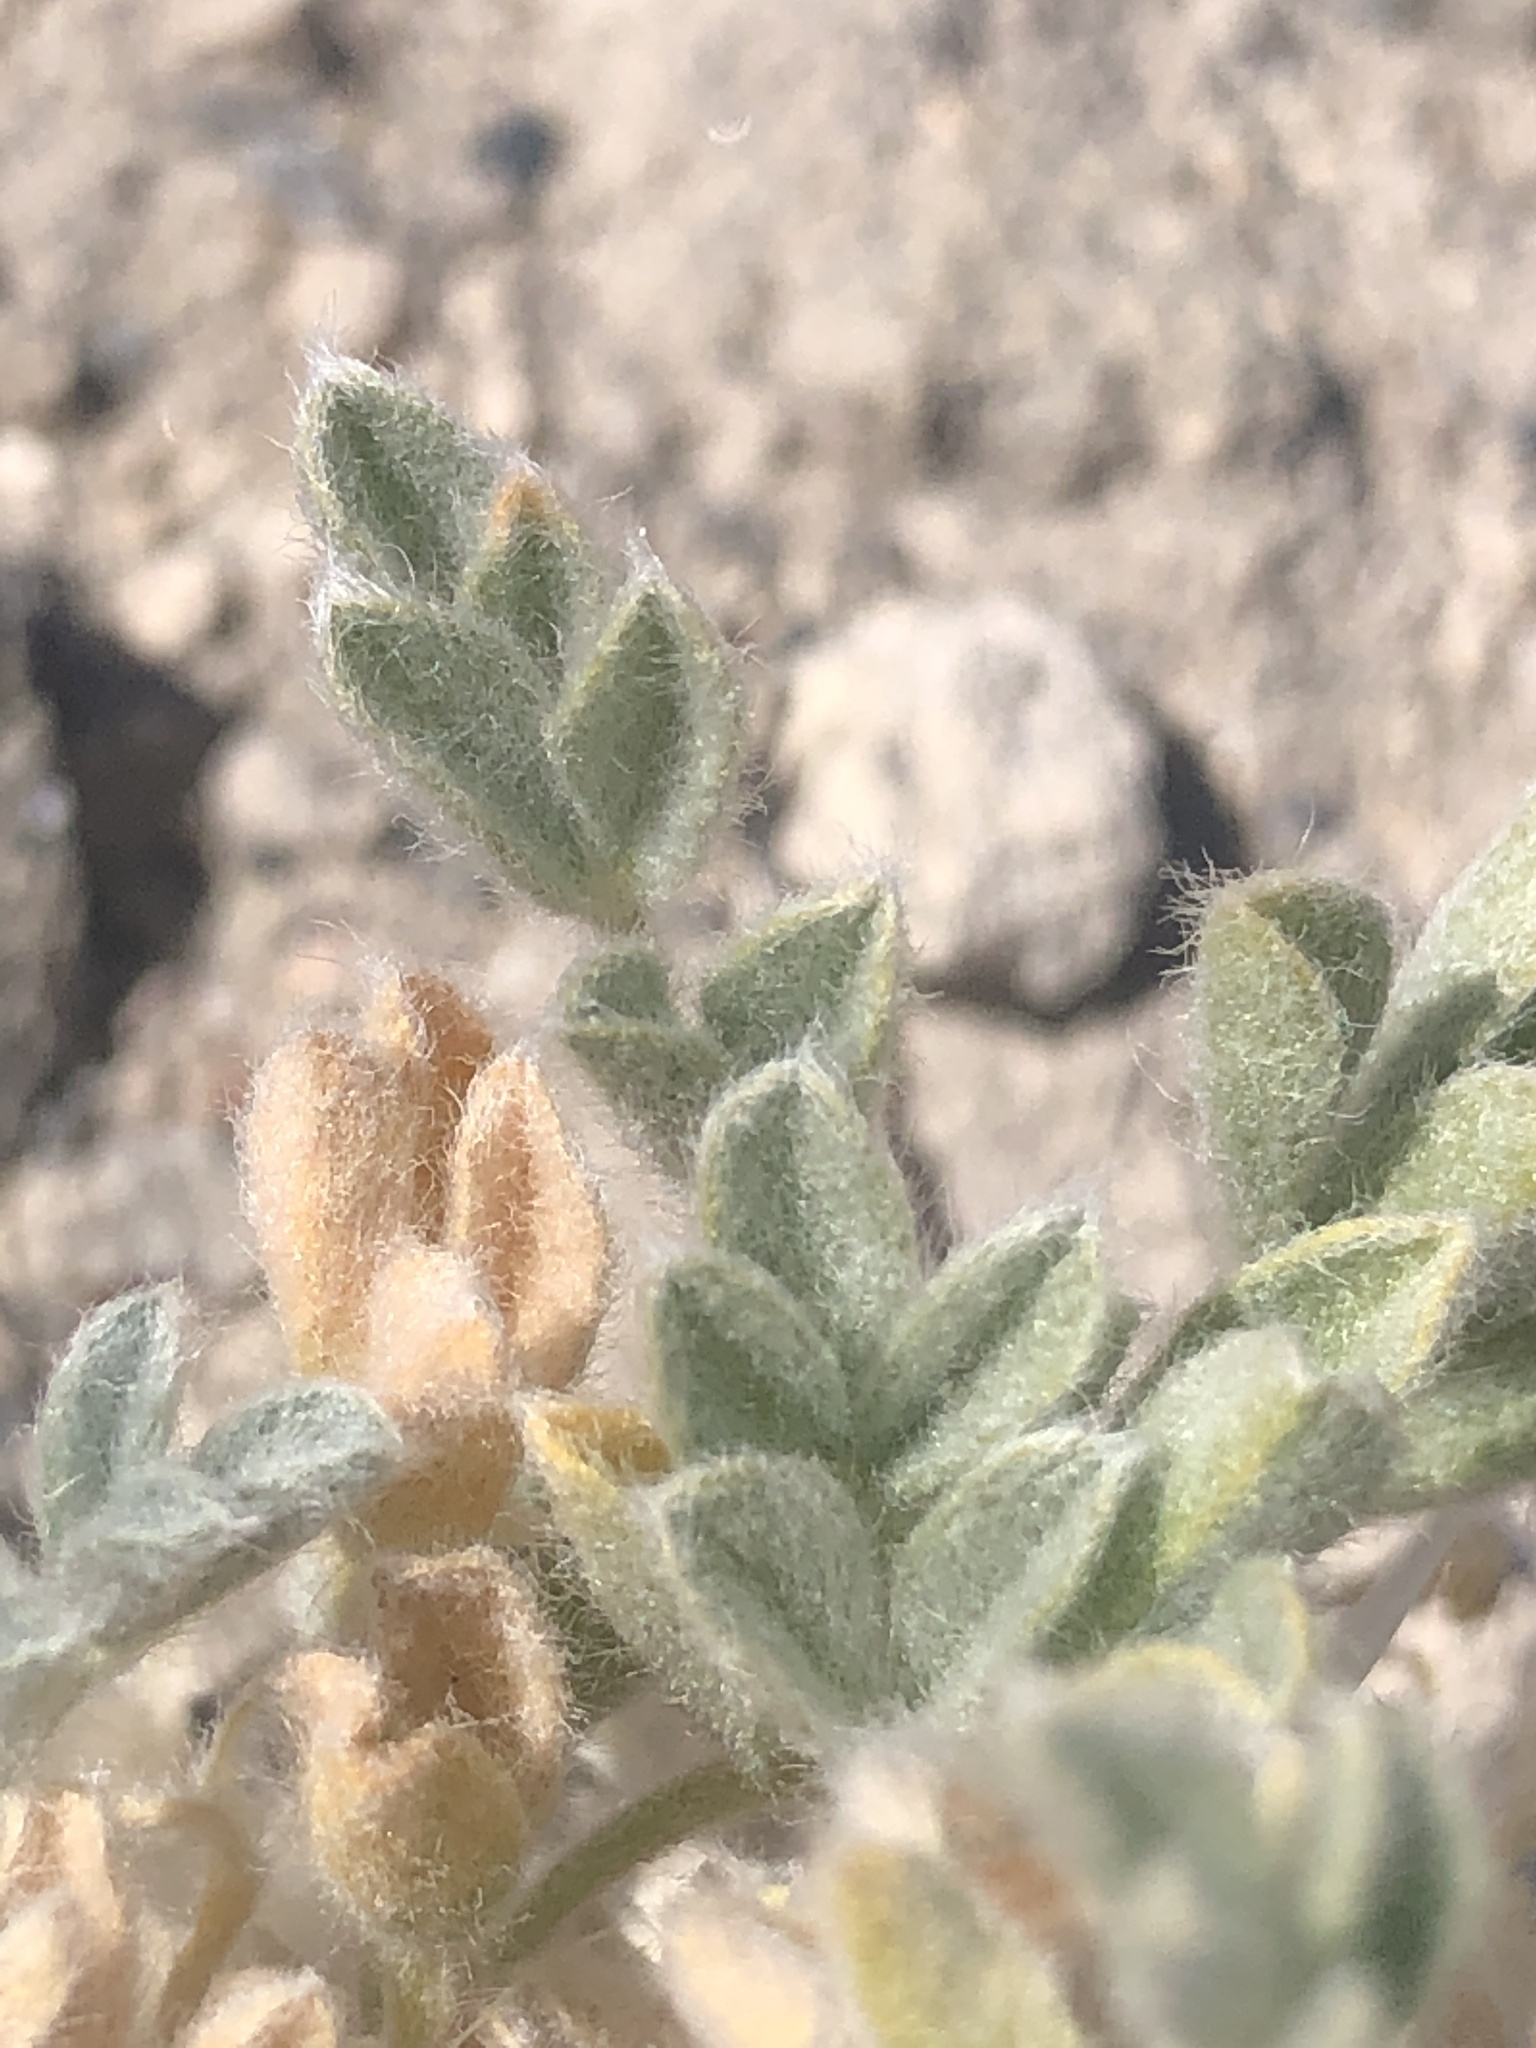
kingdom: Plantae
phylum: Tracheophyta
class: Magnoliopsida
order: Fabales
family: Fabaceae
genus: Astragalus
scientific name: Astragalus purshii
